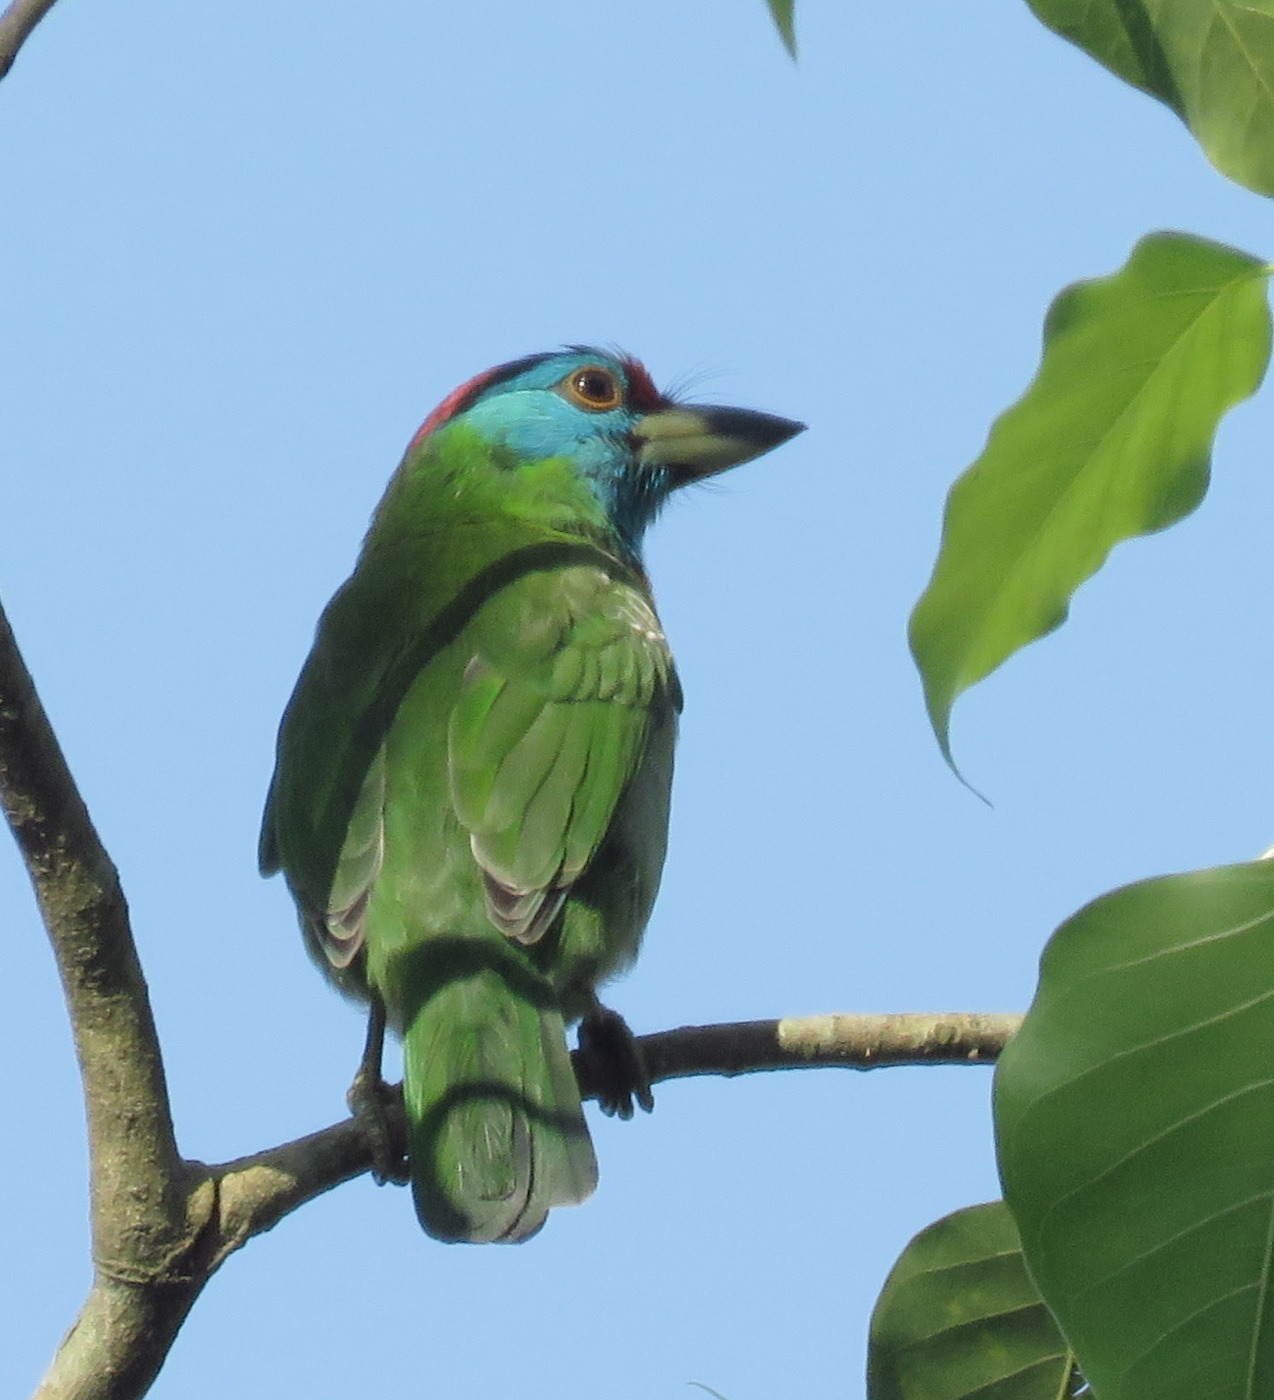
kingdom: Animalia
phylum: Chordata
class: Aves
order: Piciformes
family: Megalaimidae
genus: Psilopogon
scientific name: Psilopogon asiaticus
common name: Blue-throated barbet
